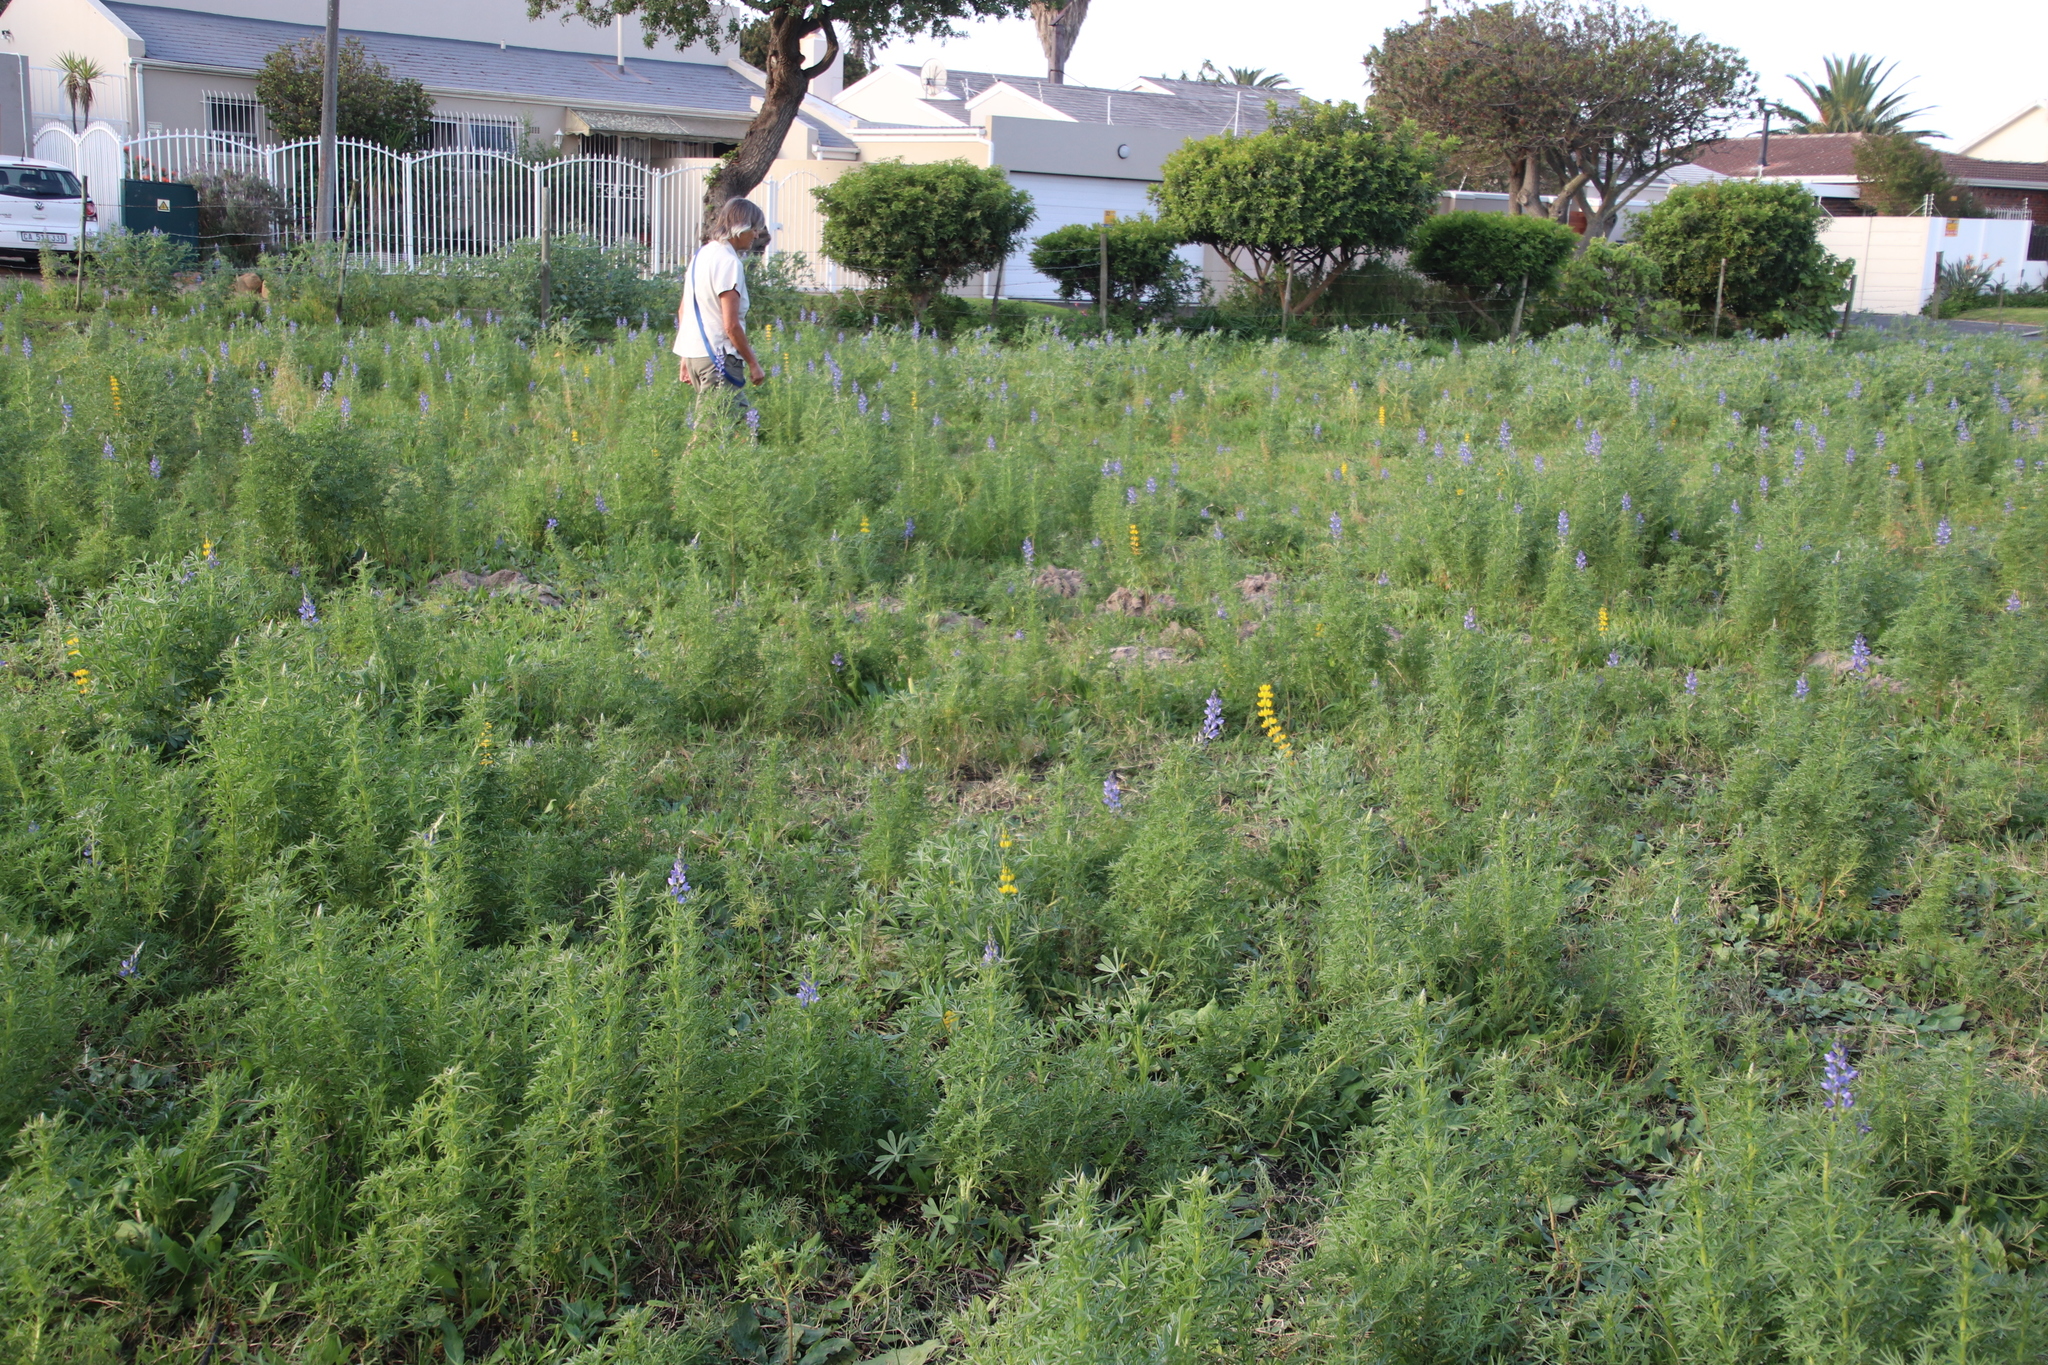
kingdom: Plantae
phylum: Tracheophyta
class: Magnoliopsida
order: Fabales
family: Fabaceae
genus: Lupinus
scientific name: Lupinus luteus
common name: European yellow lupine
